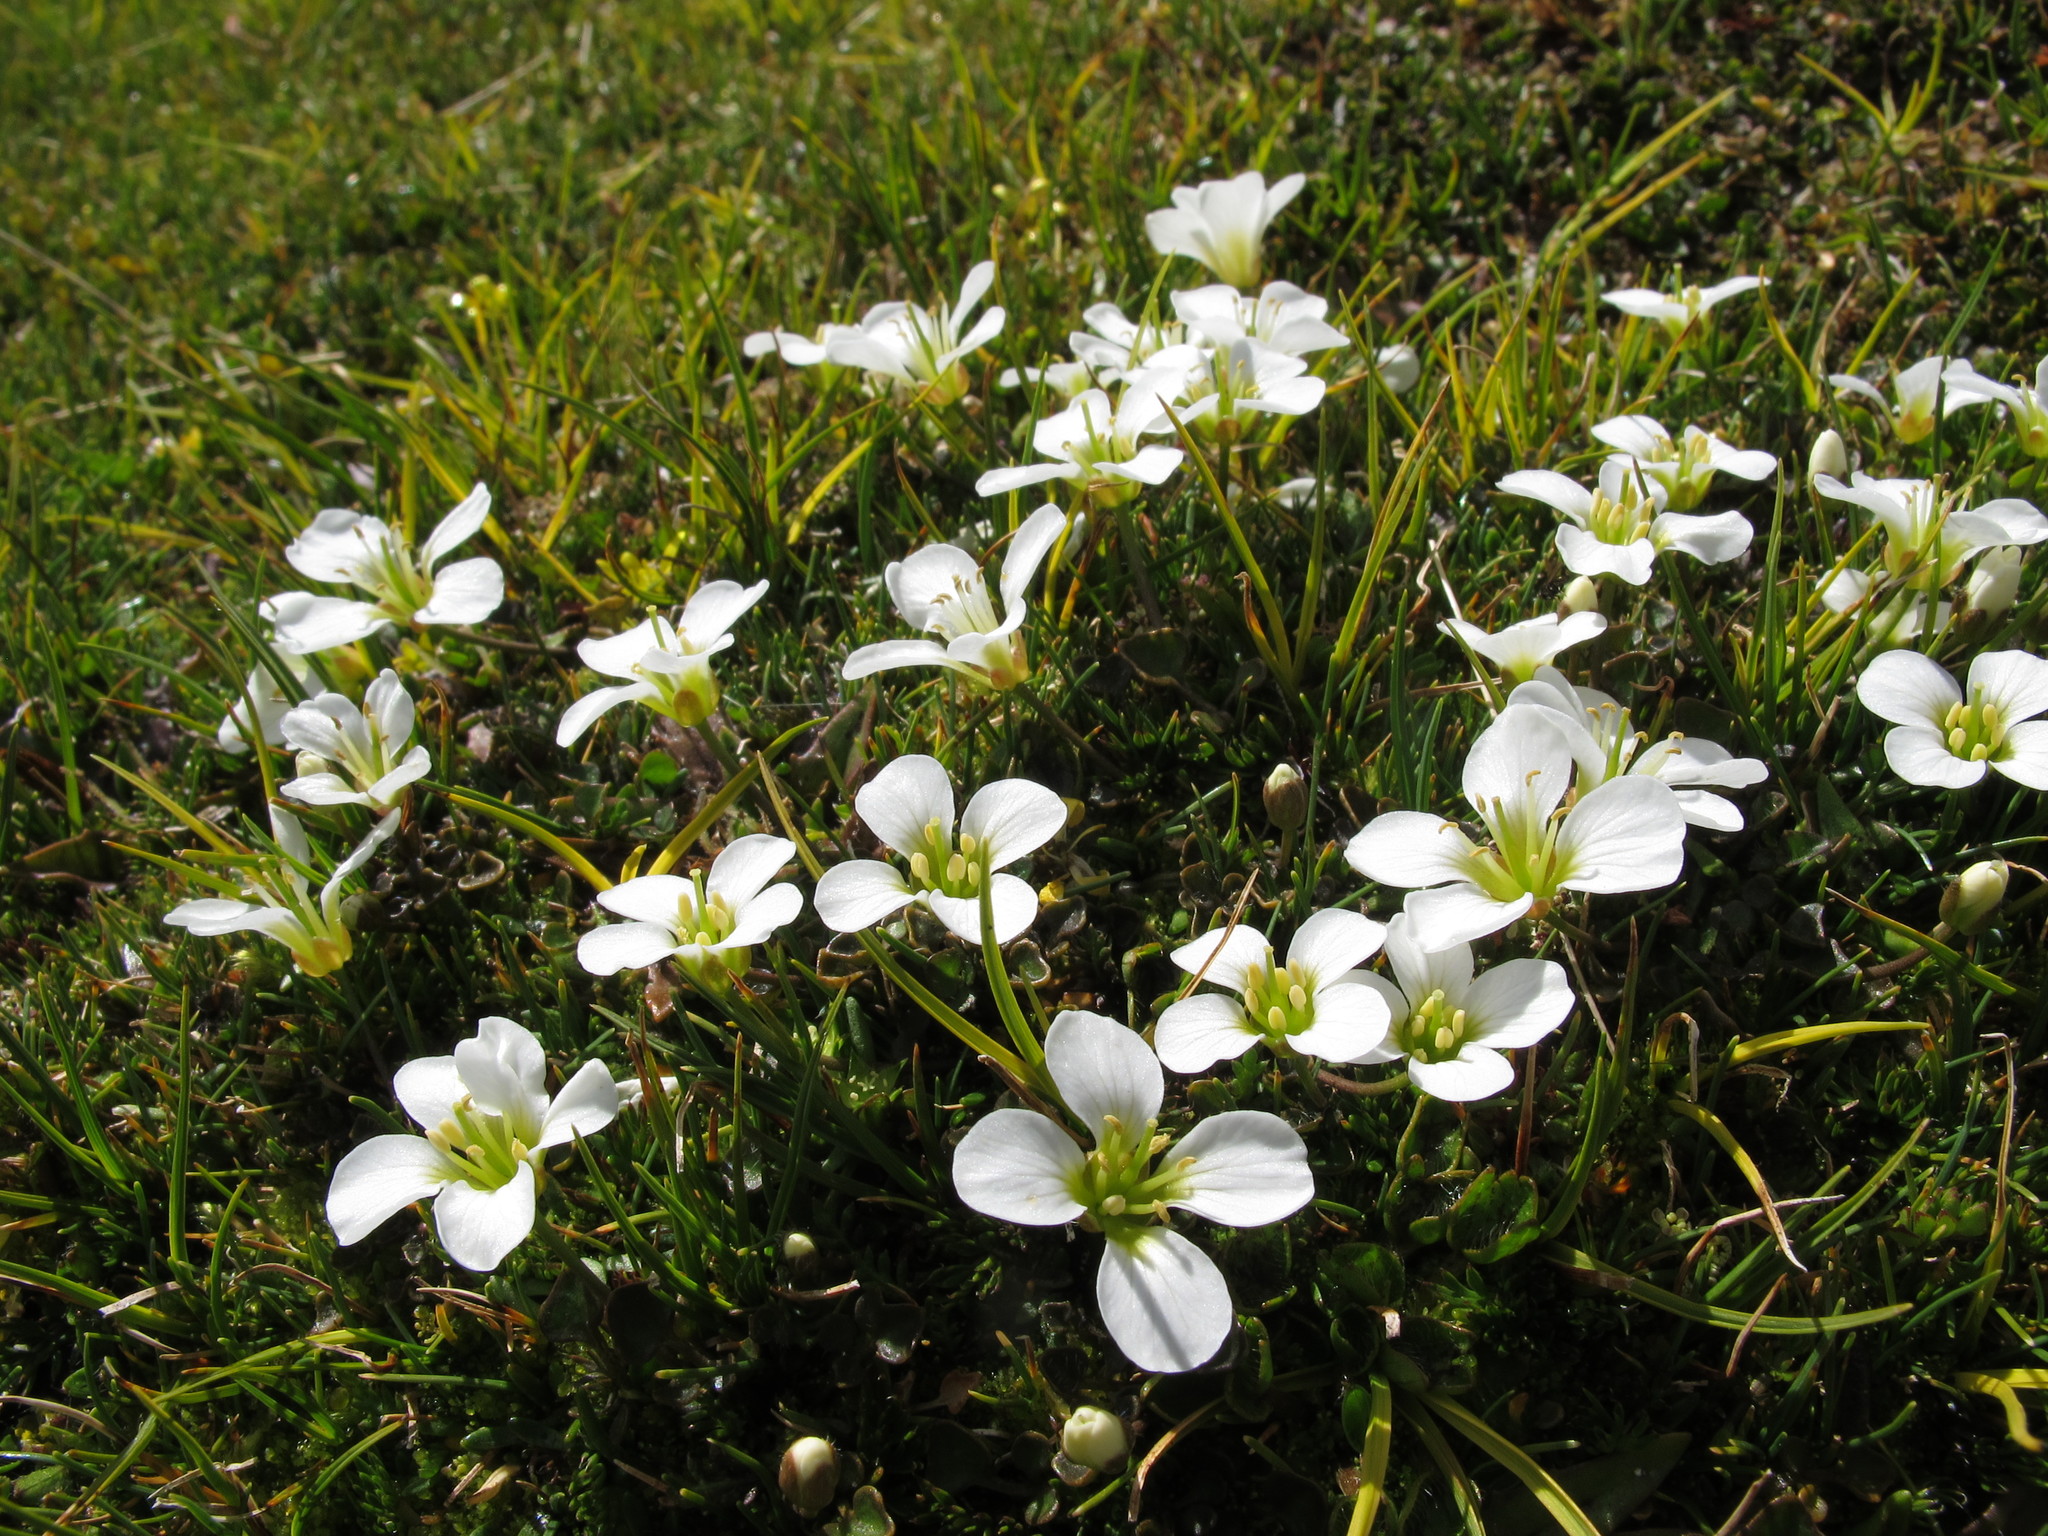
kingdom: Plantae
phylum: Tracheophyta
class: Magnoliopsida
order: Brassicales
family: Brassicaceae
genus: Cardamine
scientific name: Cardamine reptans
